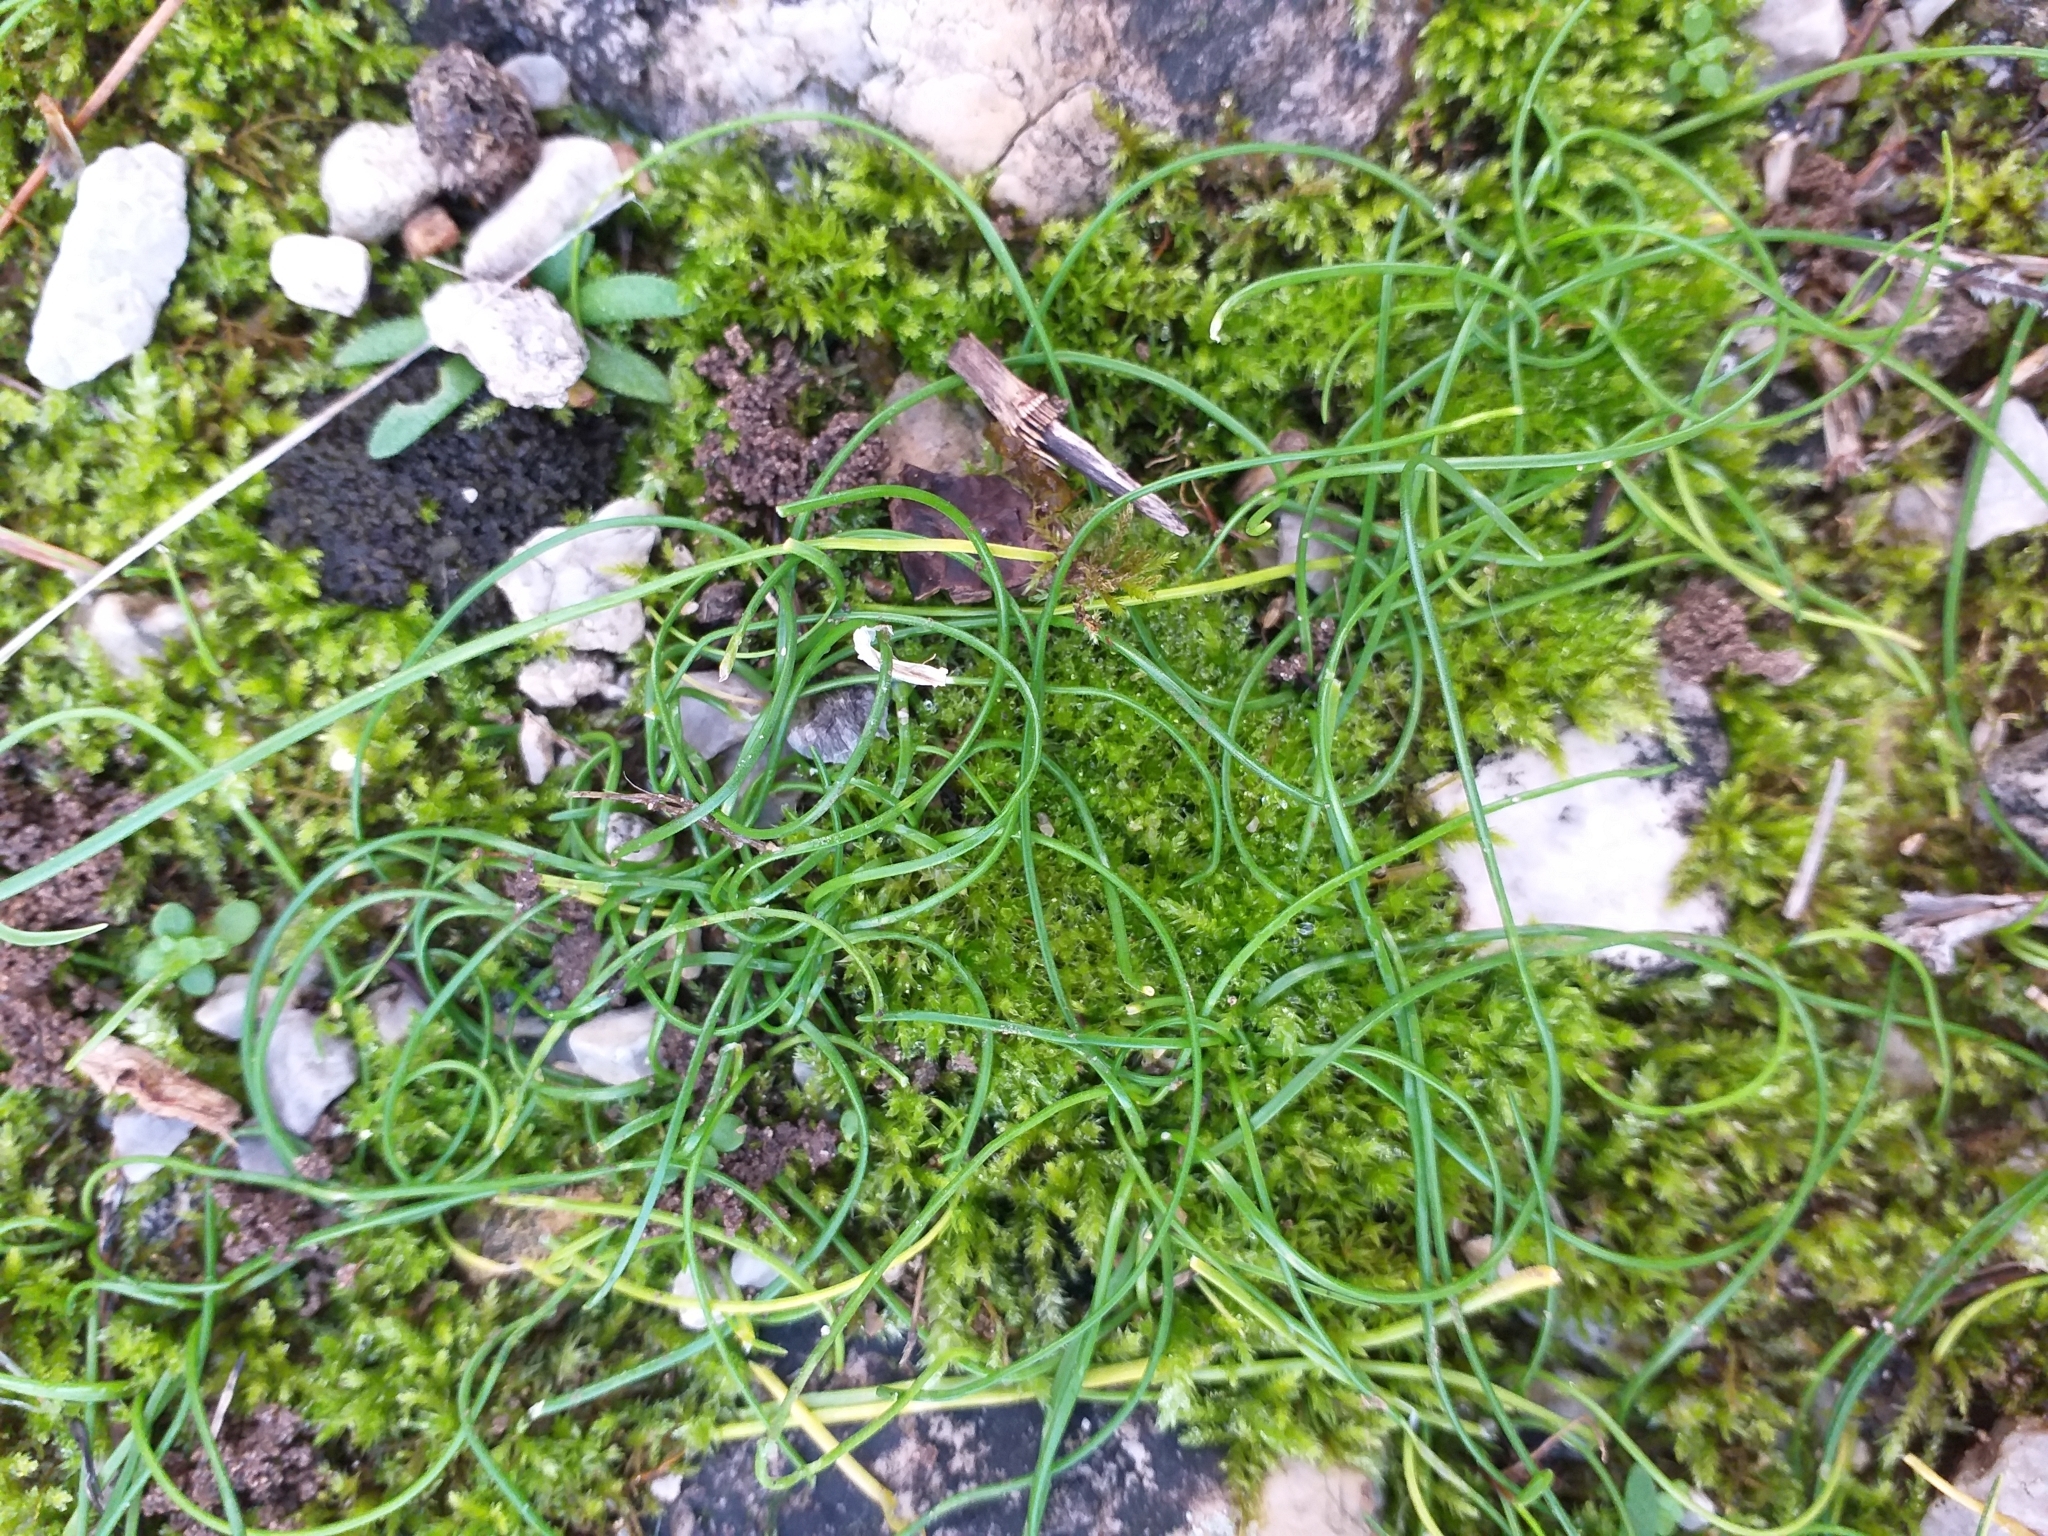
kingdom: Plantae
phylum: Tracheophyta
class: Liliopsida
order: Asparagales
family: Amaryllidaceae
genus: Allium
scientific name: Allium obtusiflorum
